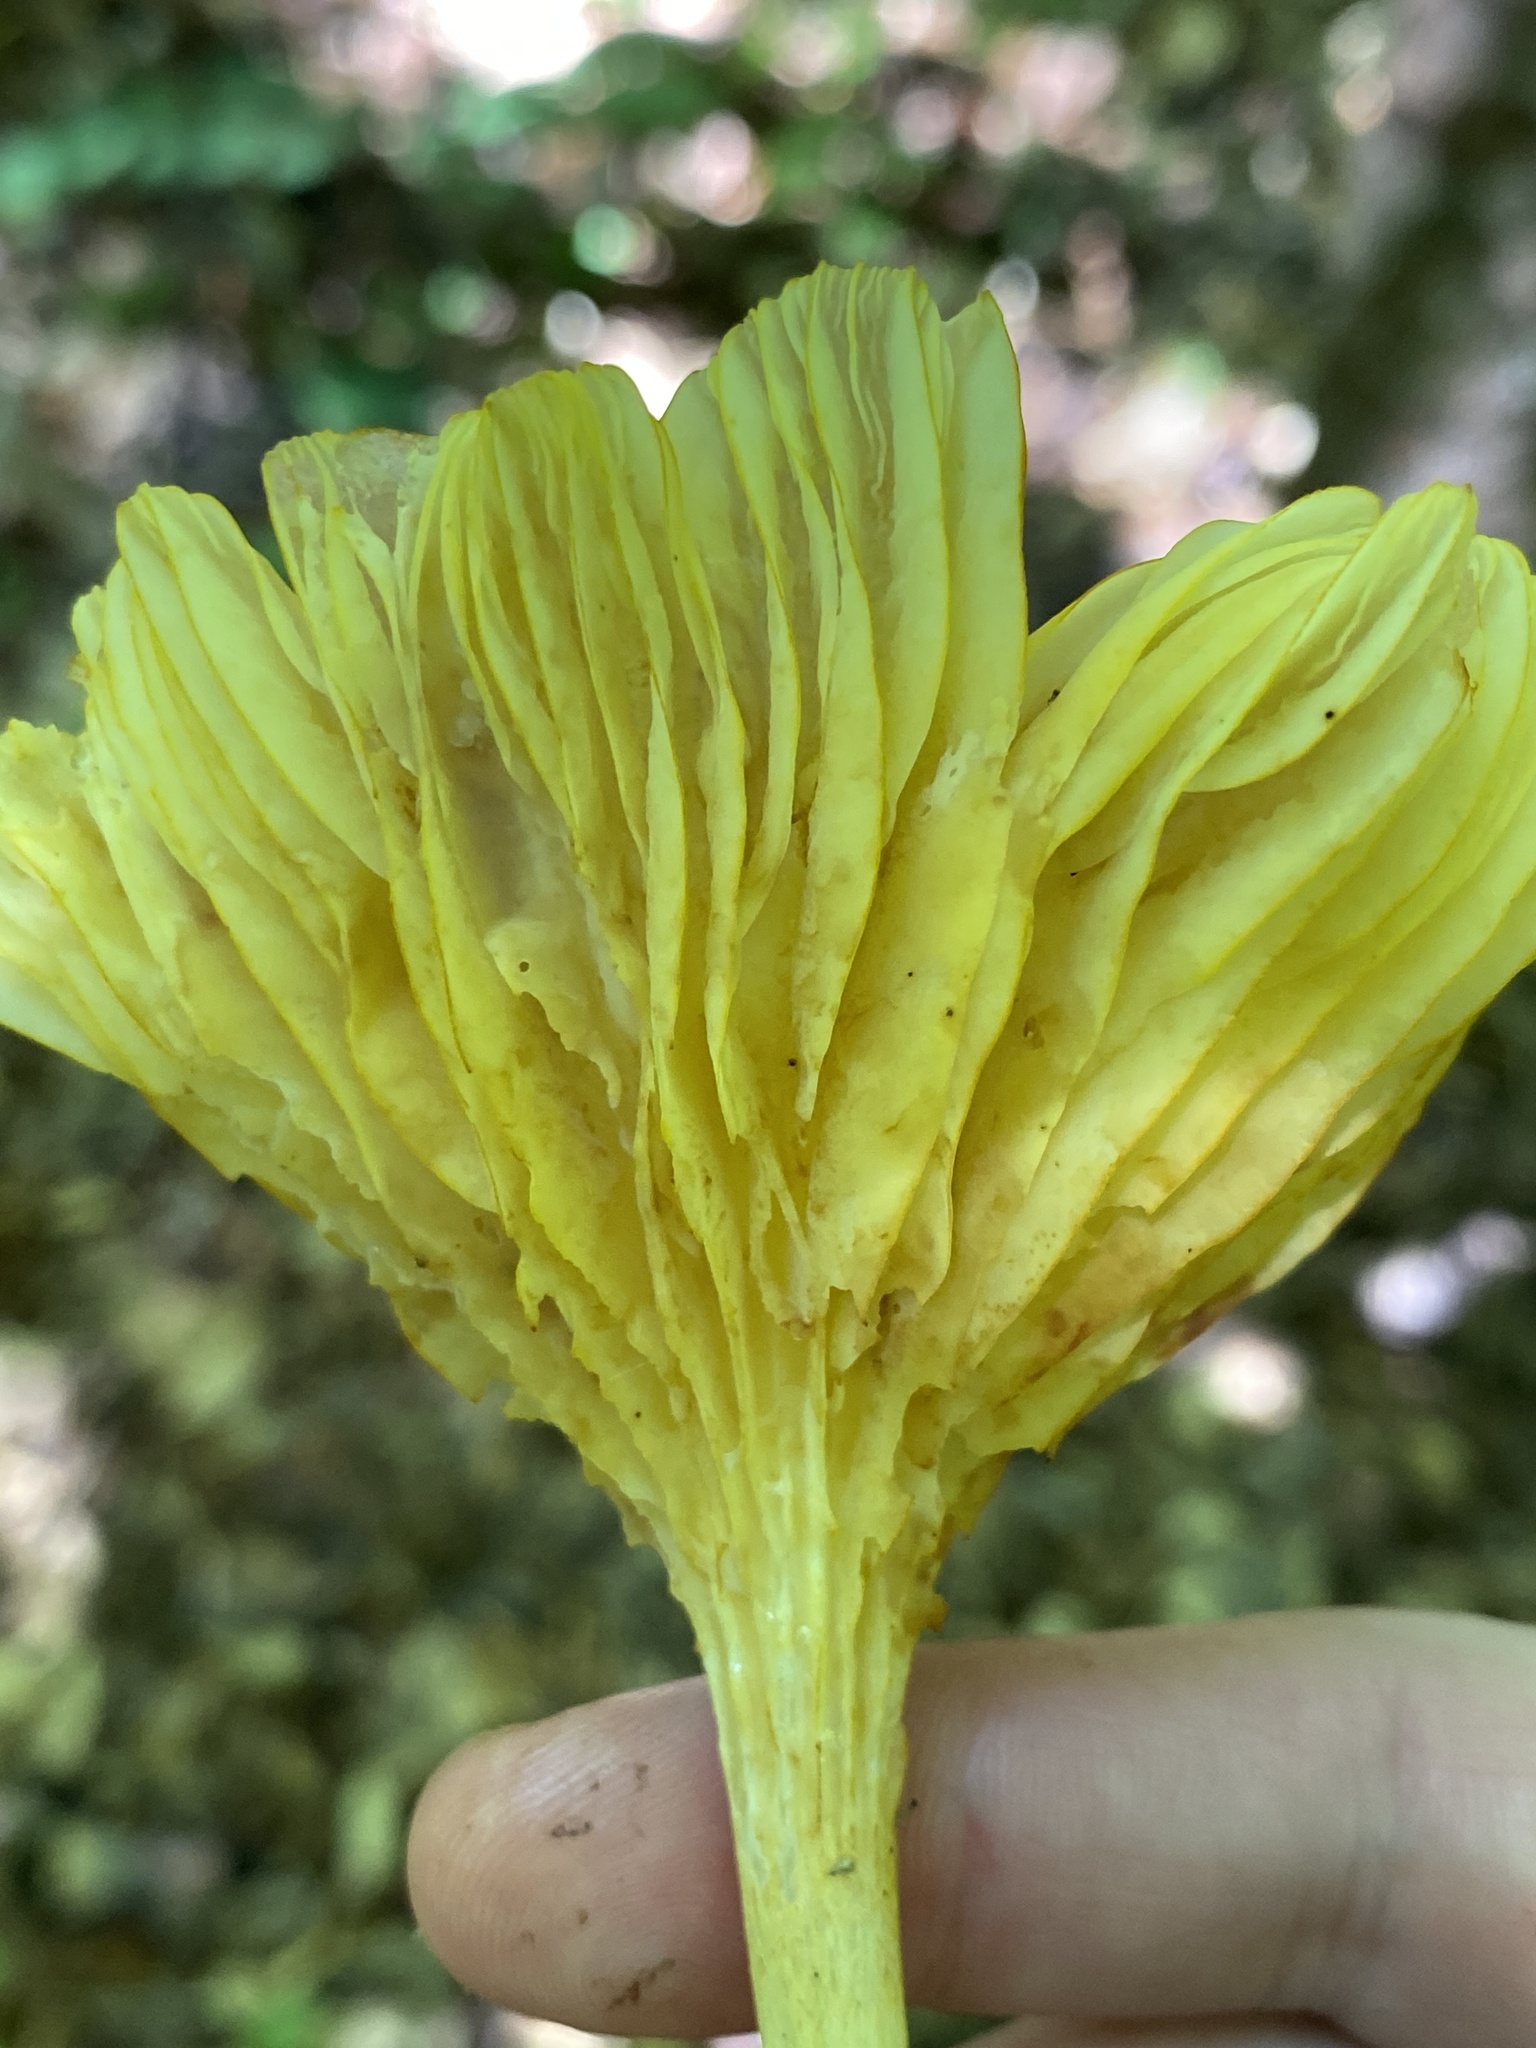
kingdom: Fungi
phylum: Basidiomycota
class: Agaricomycetes
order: Agaricales
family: Marasmiaceae
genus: Gerronema
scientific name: Gerronema strombodes
